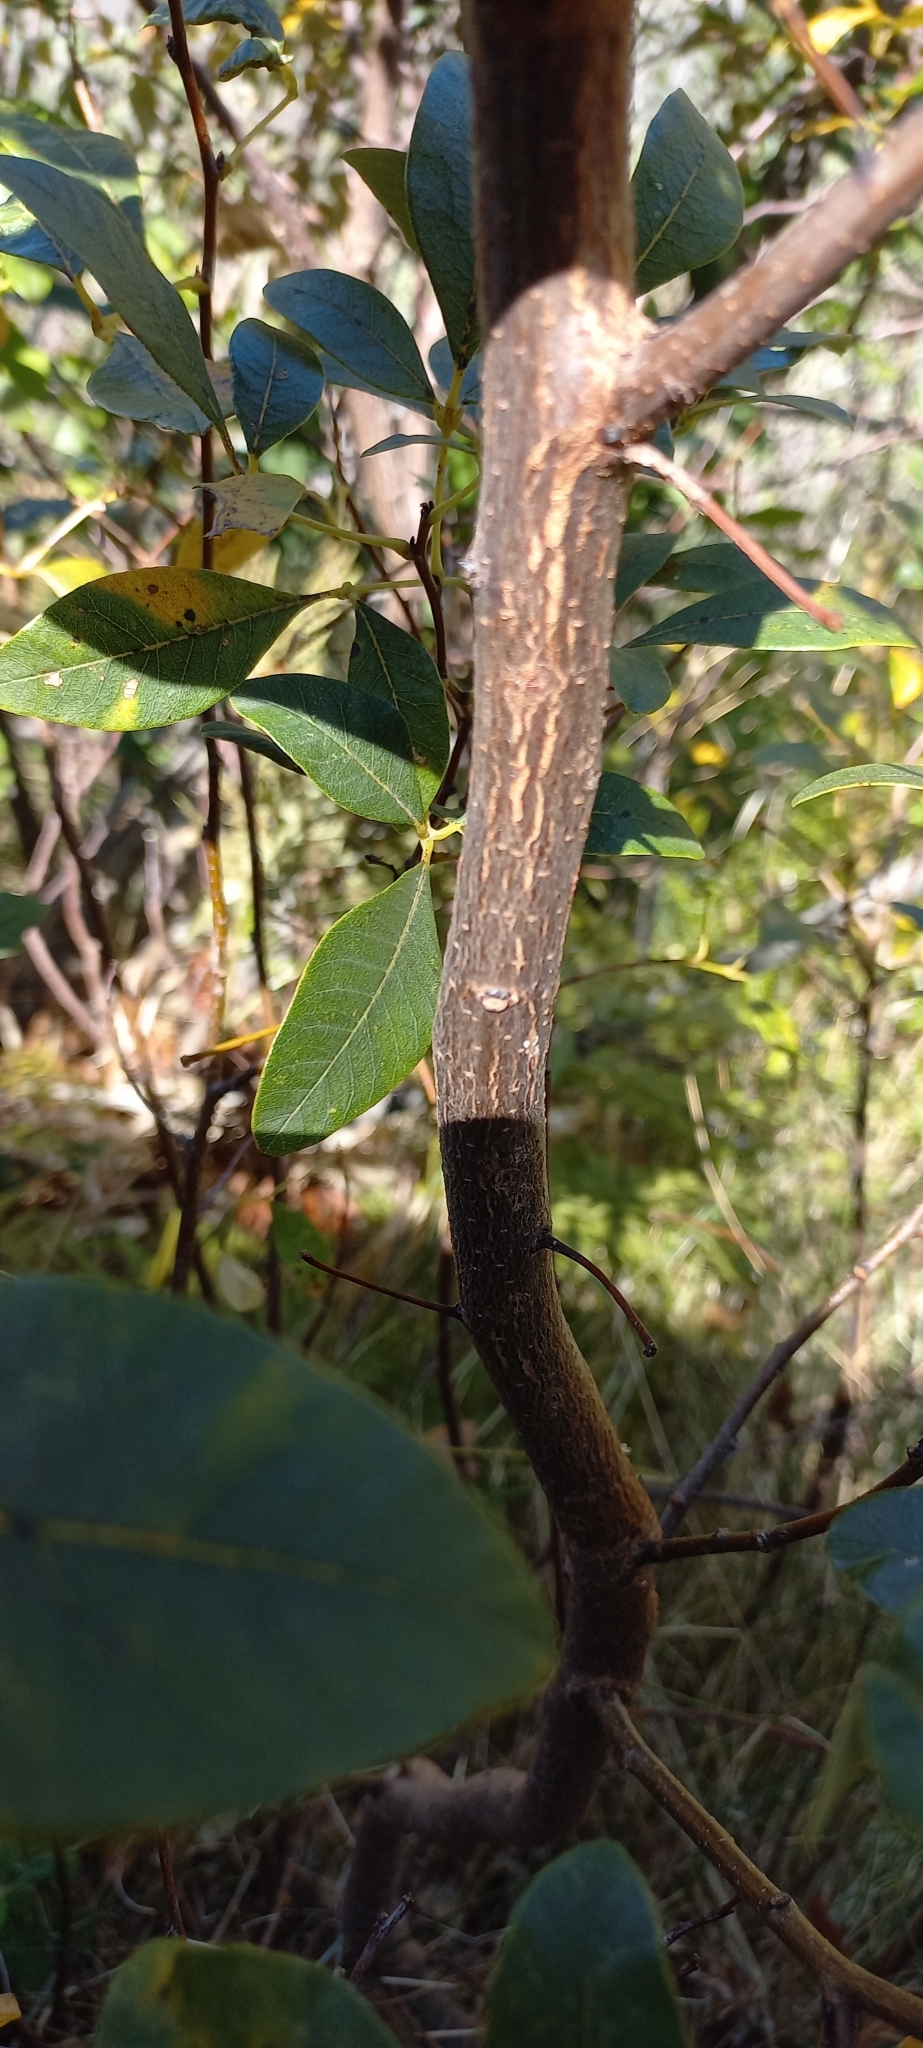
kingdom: Plantae
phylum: Tracheophyta
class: Magnoliopsida
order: Sapindales
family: Anacardiaceae
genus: Searsia
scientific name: Searsia tomentosa
